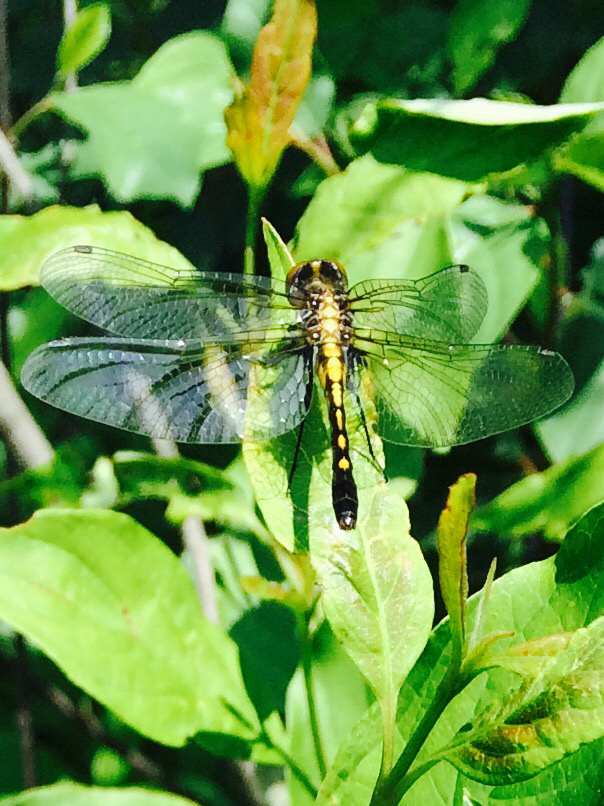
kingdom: Animalia
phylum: Arthropoda
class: Insecta
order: Odonata
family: Libellulidae
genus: Leucorrhinia
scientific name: Leucorrhinia intacta
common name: Dot-tailed whiteface
